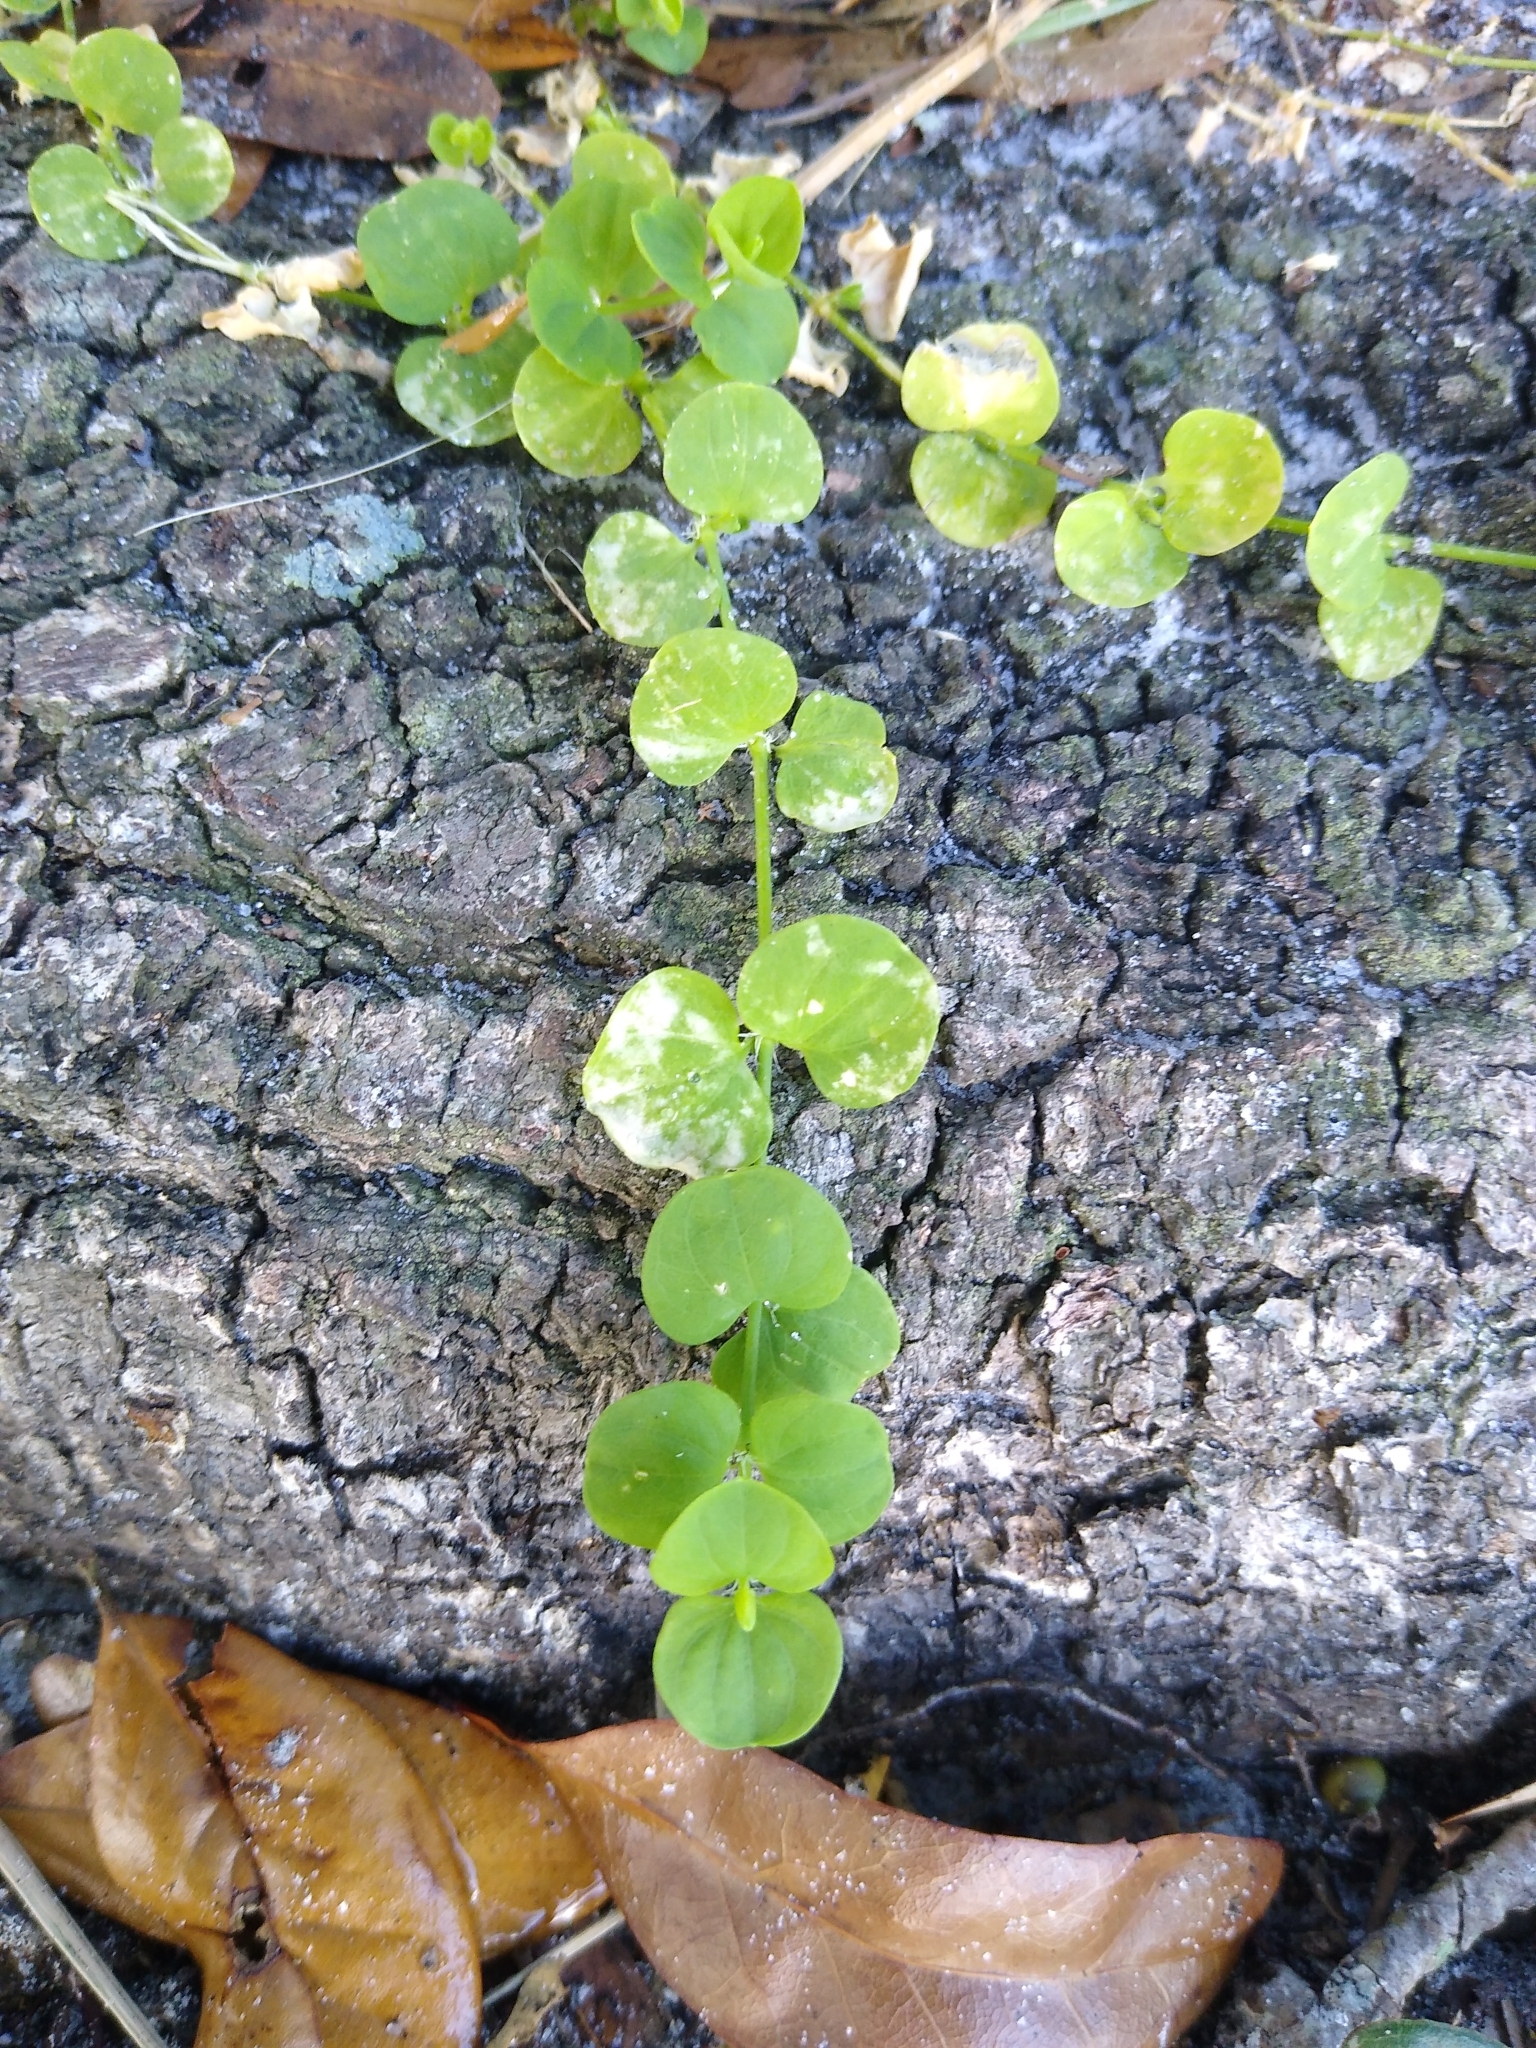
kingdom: Plantae
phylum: Tracheophyta
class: Magnoliopsida
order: Caryophyllales
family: Caryophyllaceae
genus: Drymaria
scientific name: Drymaria cordata
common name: Whitesnow
